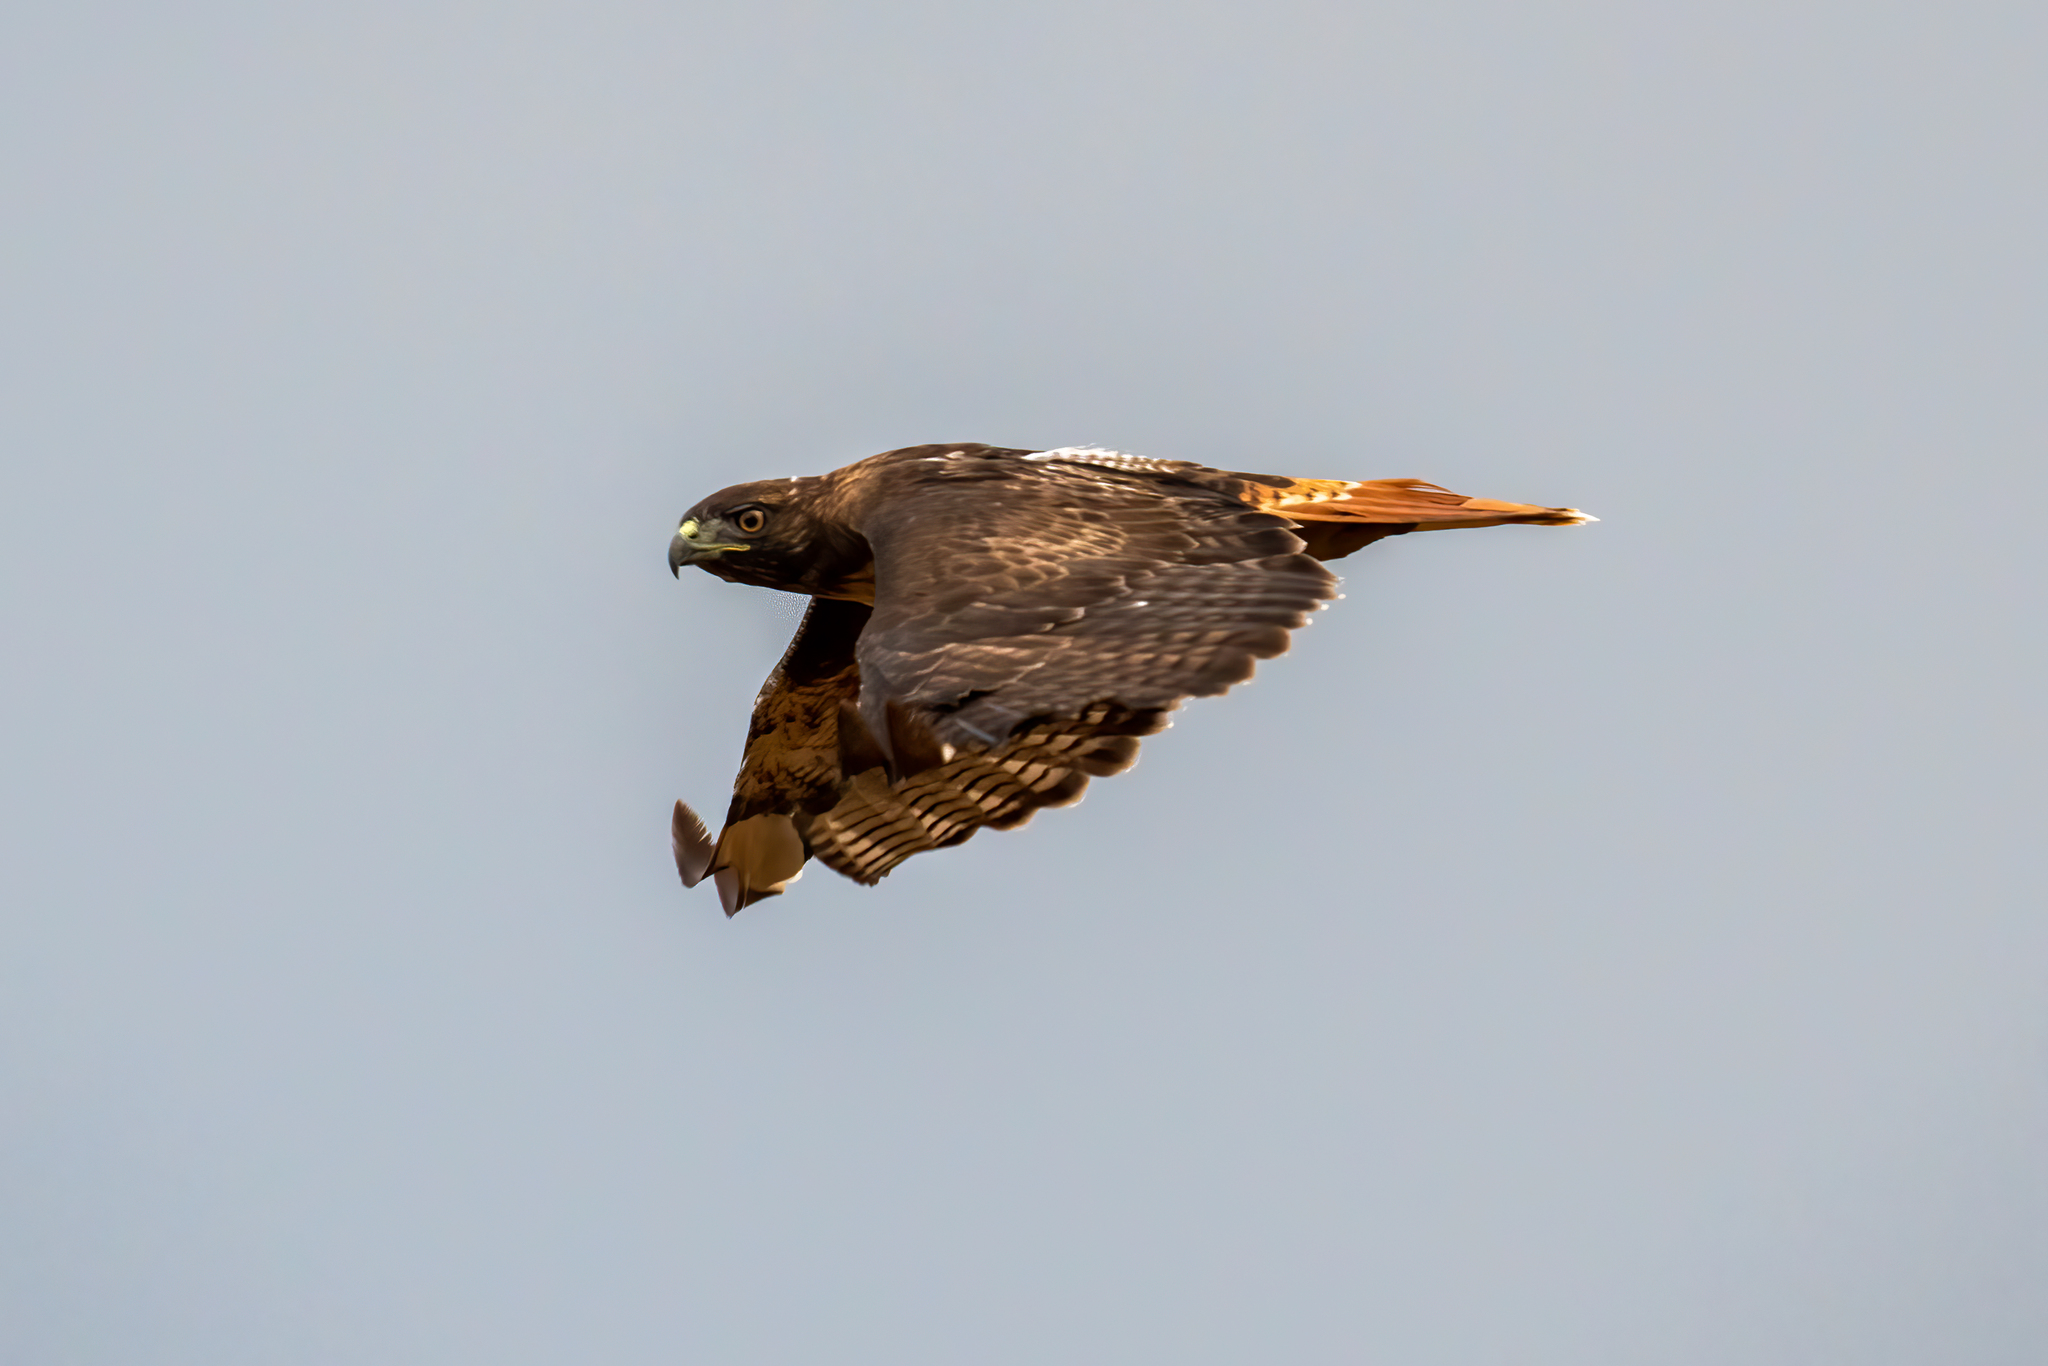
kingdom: Animalia
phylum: Chordata
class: Aves
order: Accipitriformes
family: Accipitridae
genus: Buteo
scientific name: Buteo jamaicensis
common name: Red-tailed hawk
